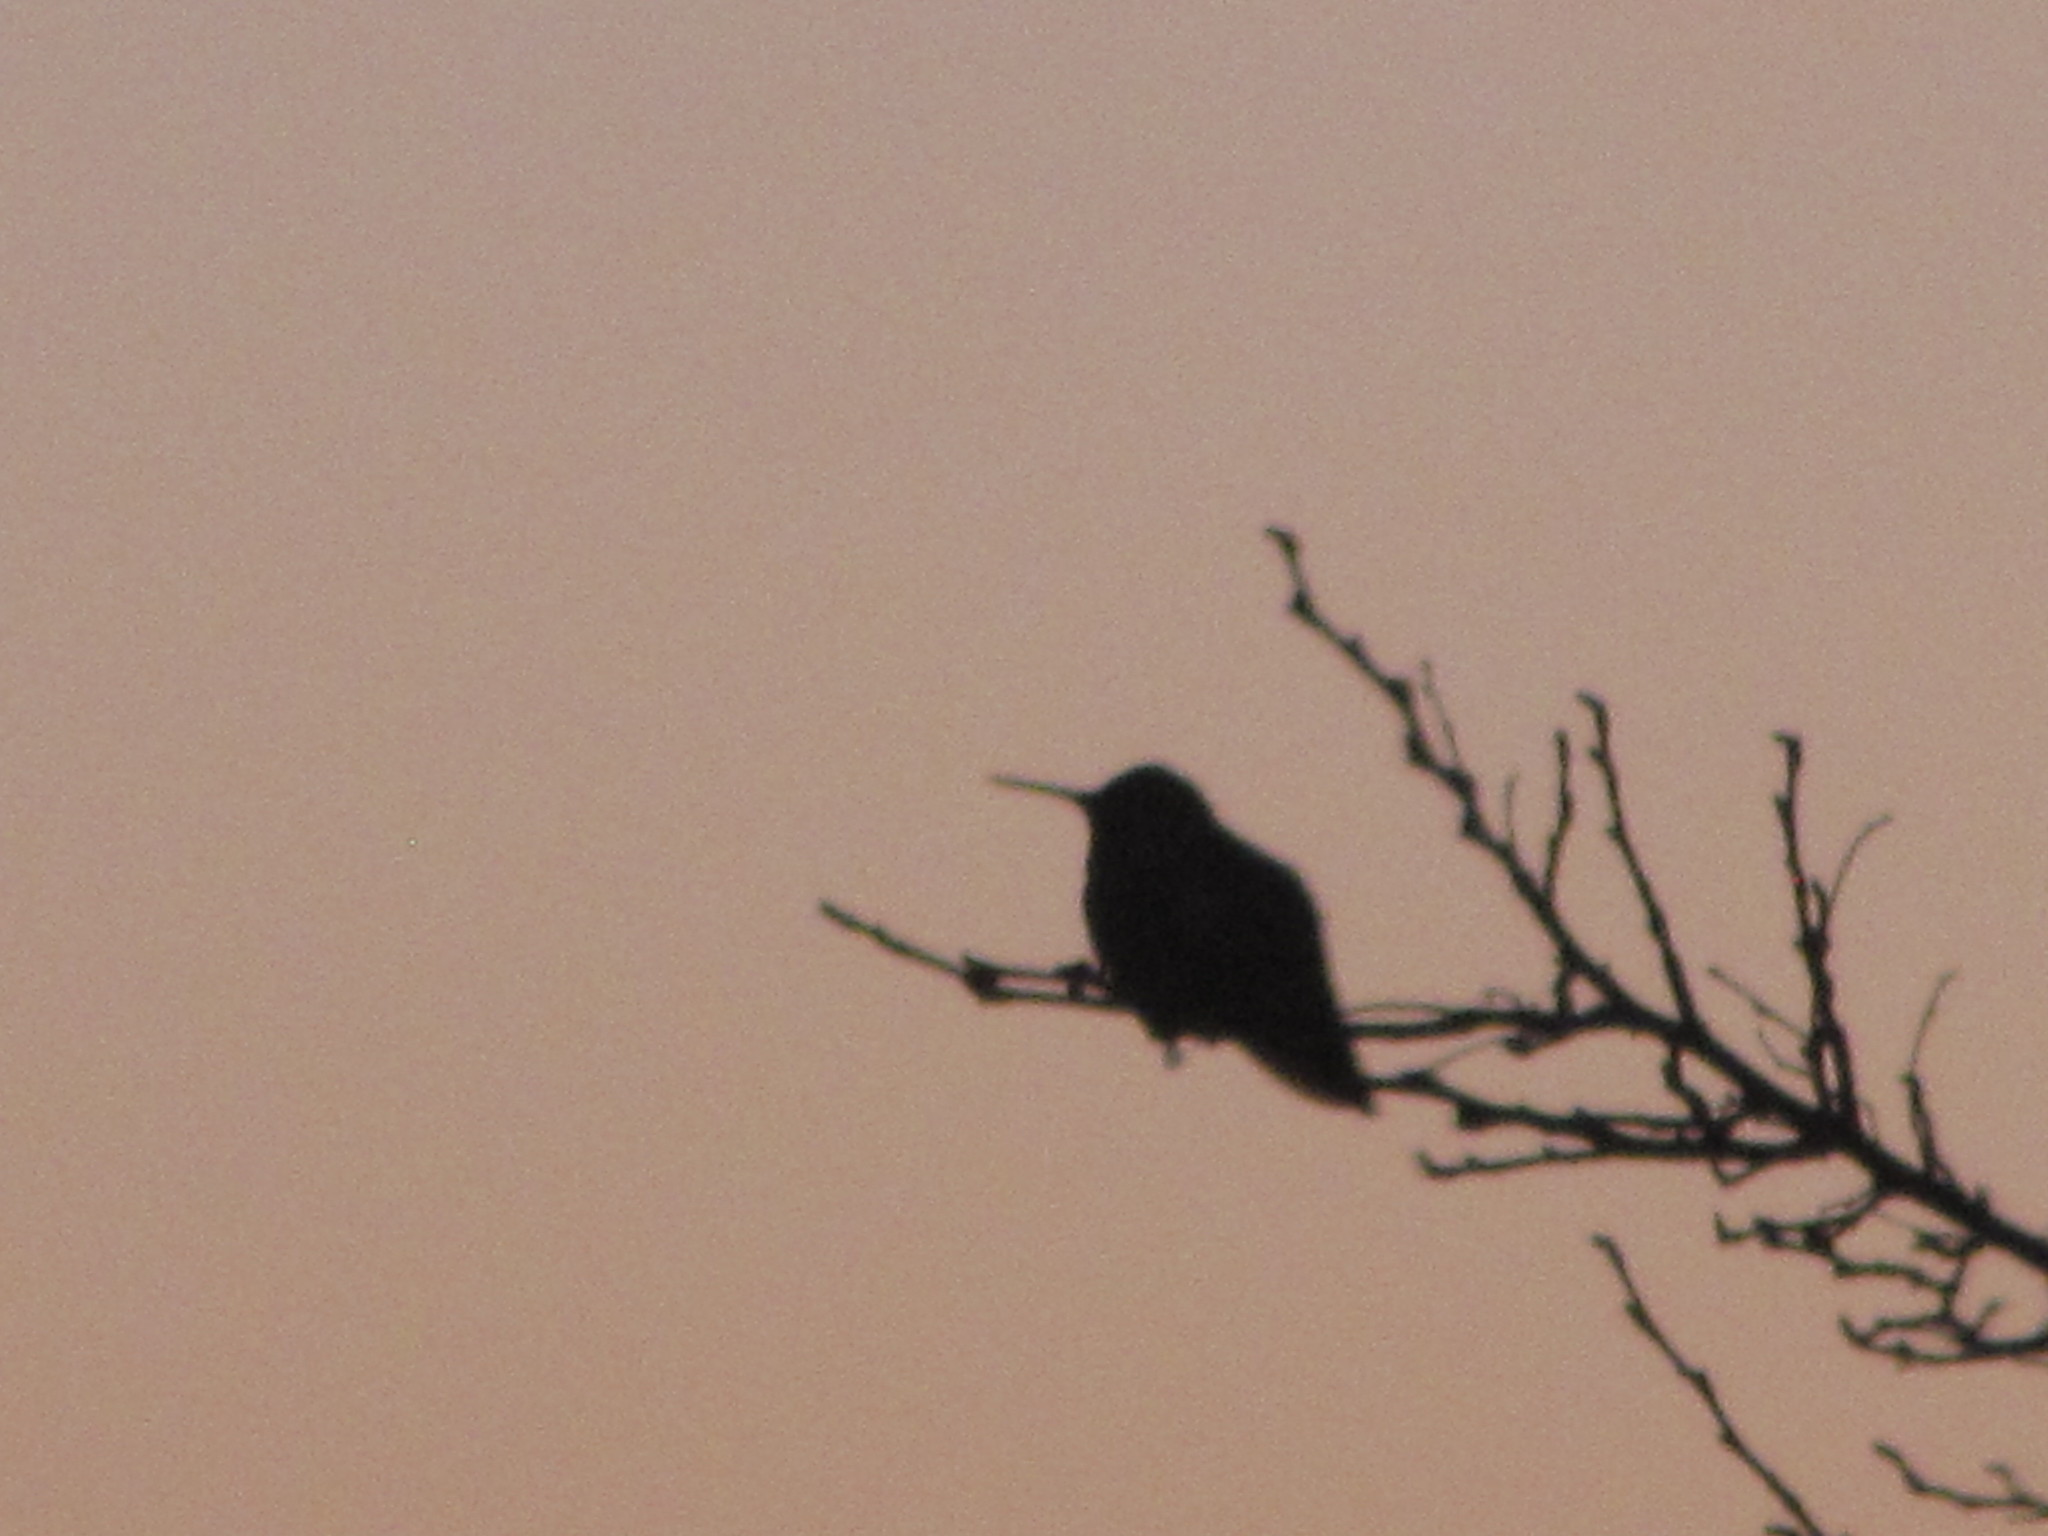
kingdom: Animalia
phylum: Chordata
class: Aves
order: Apodiformes
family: Trochilidae
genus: Calypte
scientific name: Calypte anna
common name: Anna's hummingbird
